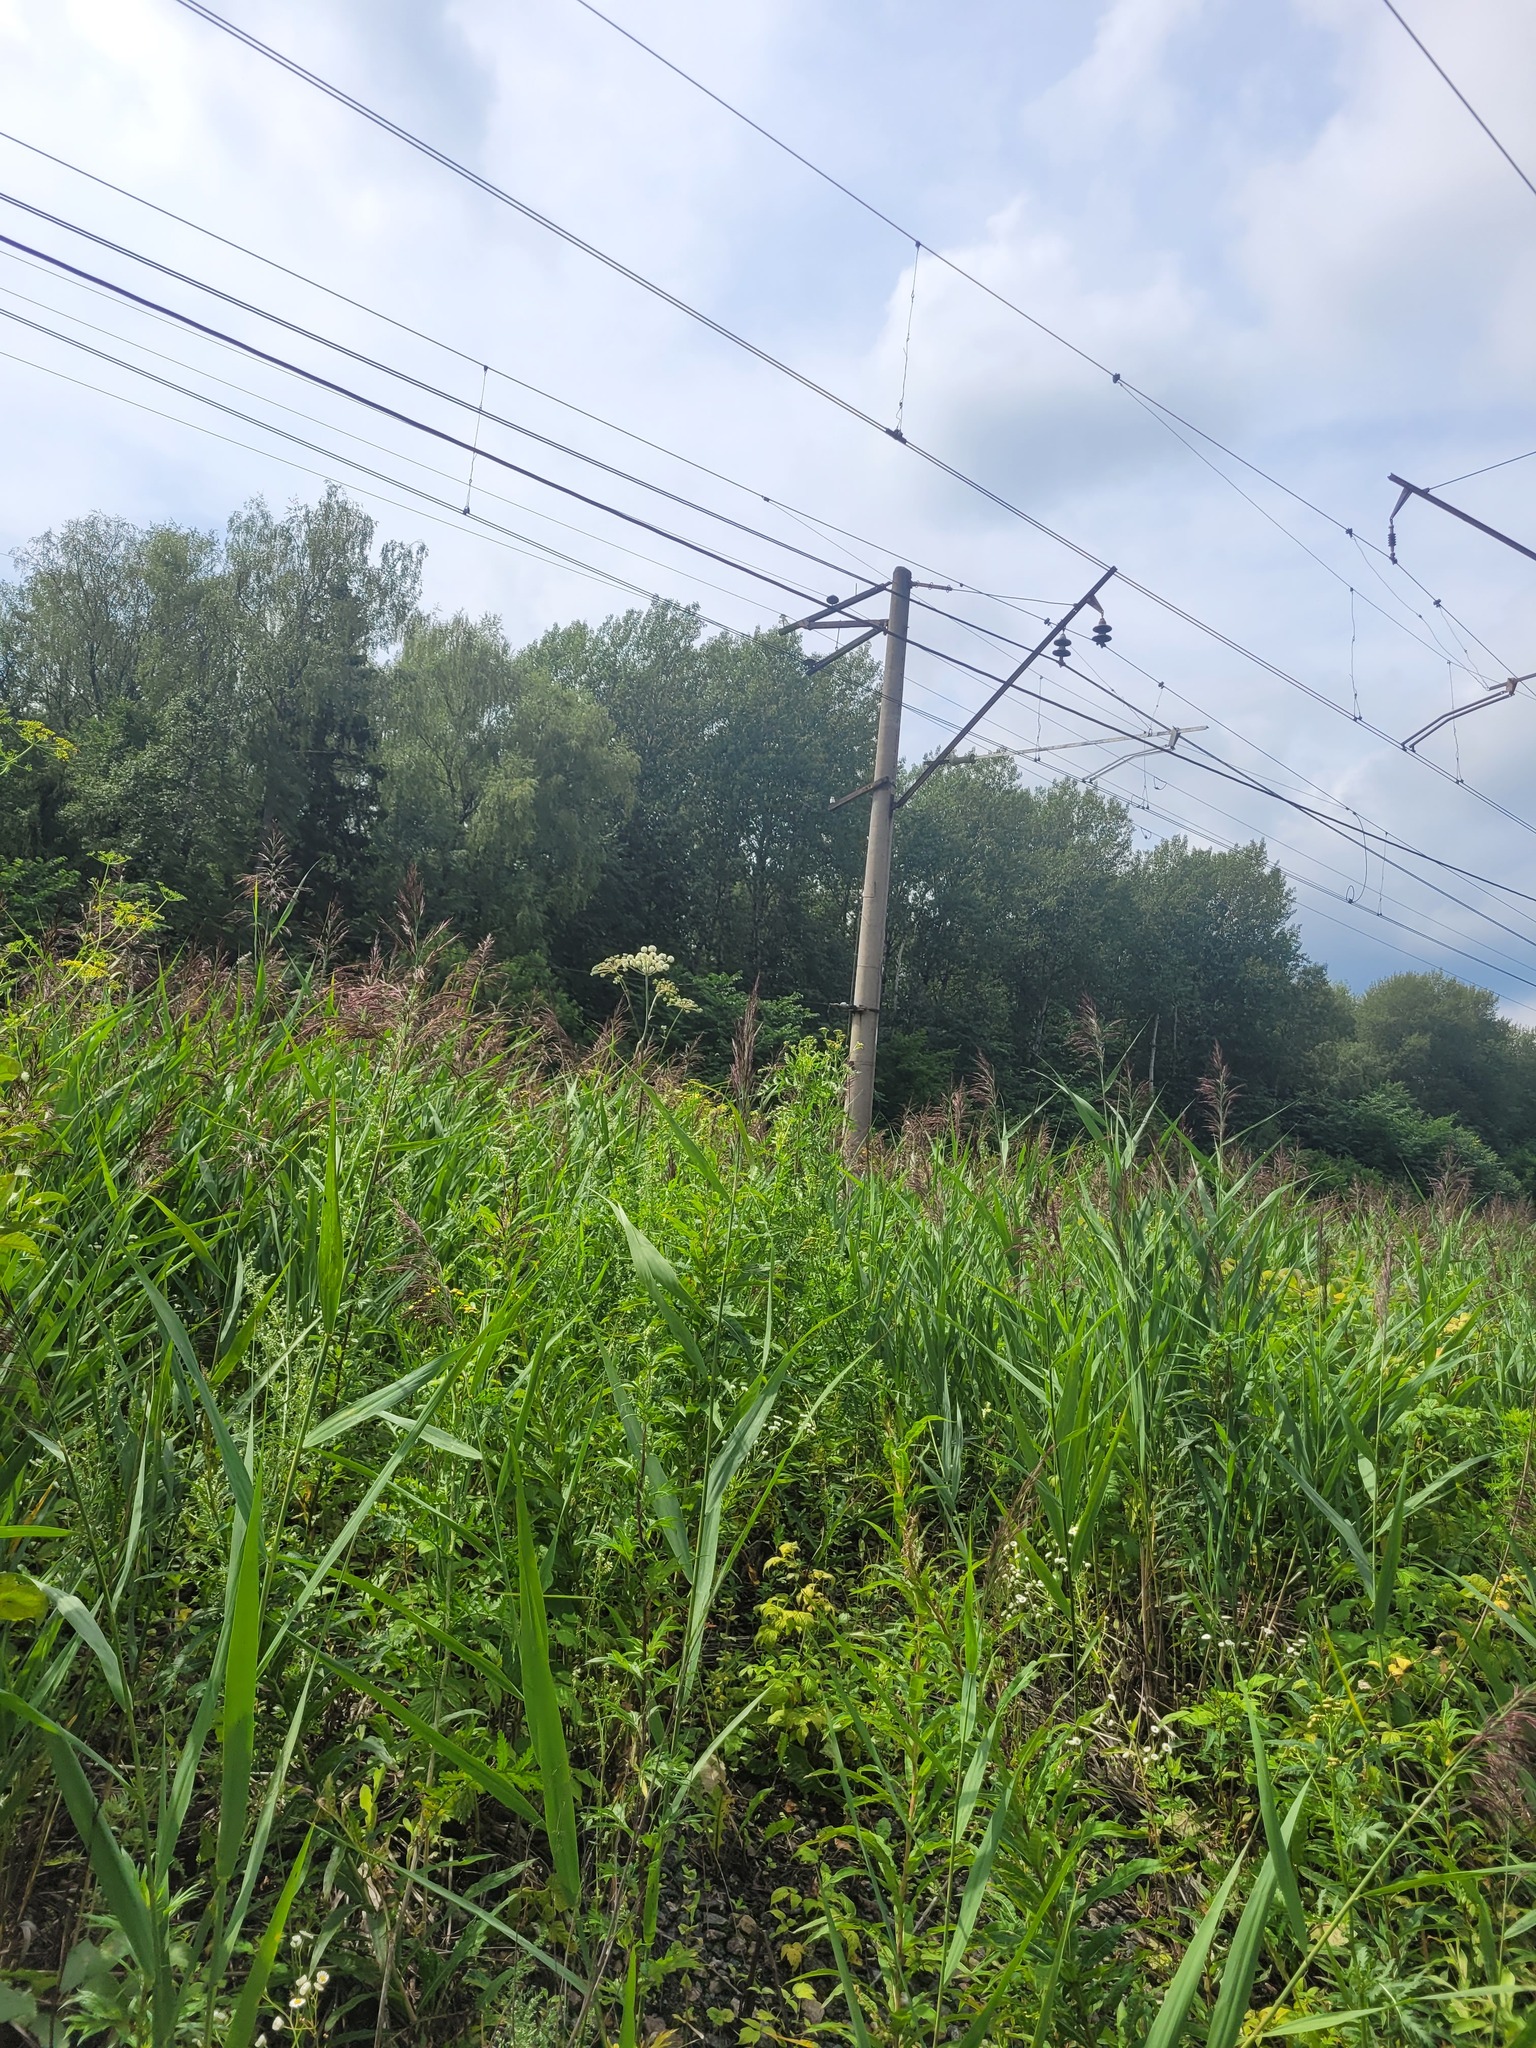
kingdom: Plantae
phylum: Tracheophyta
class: Liliopsida
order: Poales
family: Poaceae
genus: Phragmites
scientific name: Phragmites australis
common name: Common reed
